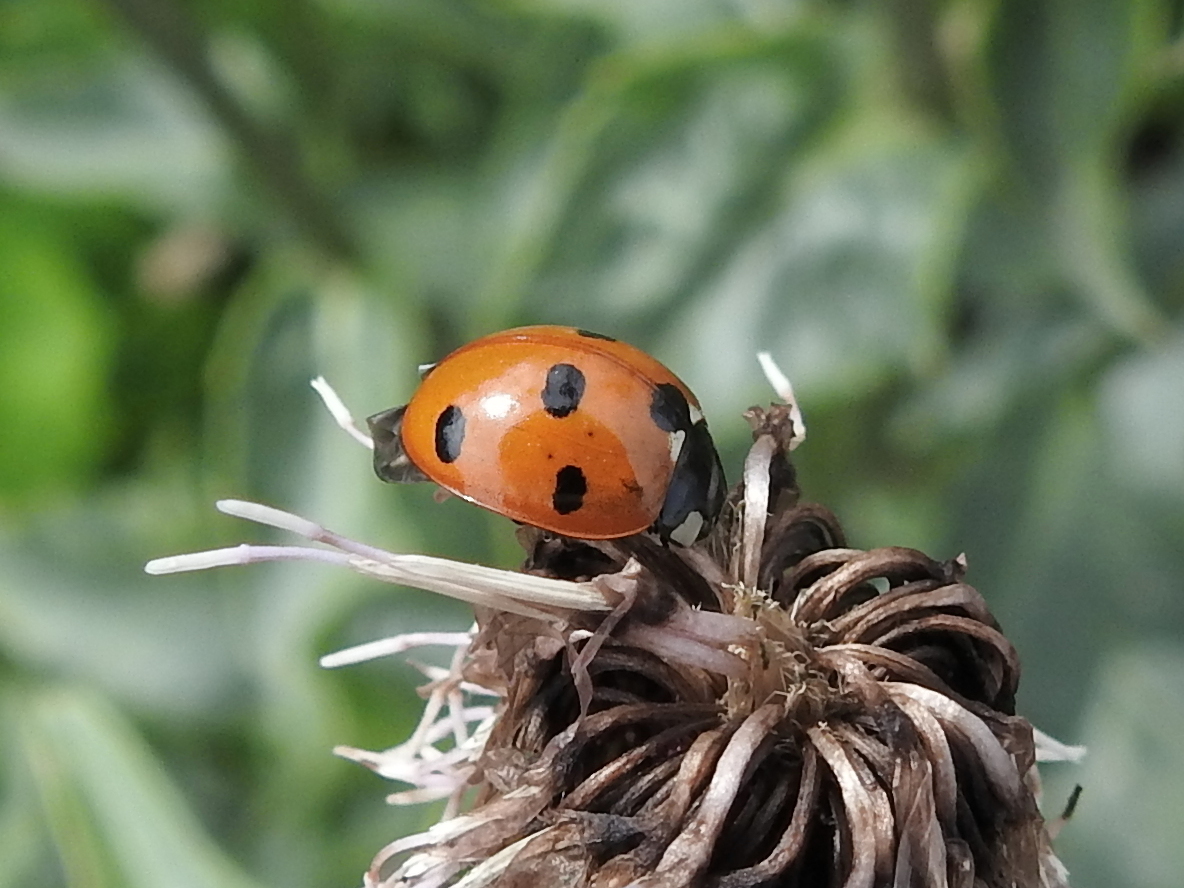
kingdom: Animalia
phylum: Arthropoda
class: Insecta
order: Coleoptera
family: Coccinellidae
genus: Coccinella
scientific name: Coccinella septempunctata
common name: Sevenspotted lady beetle
